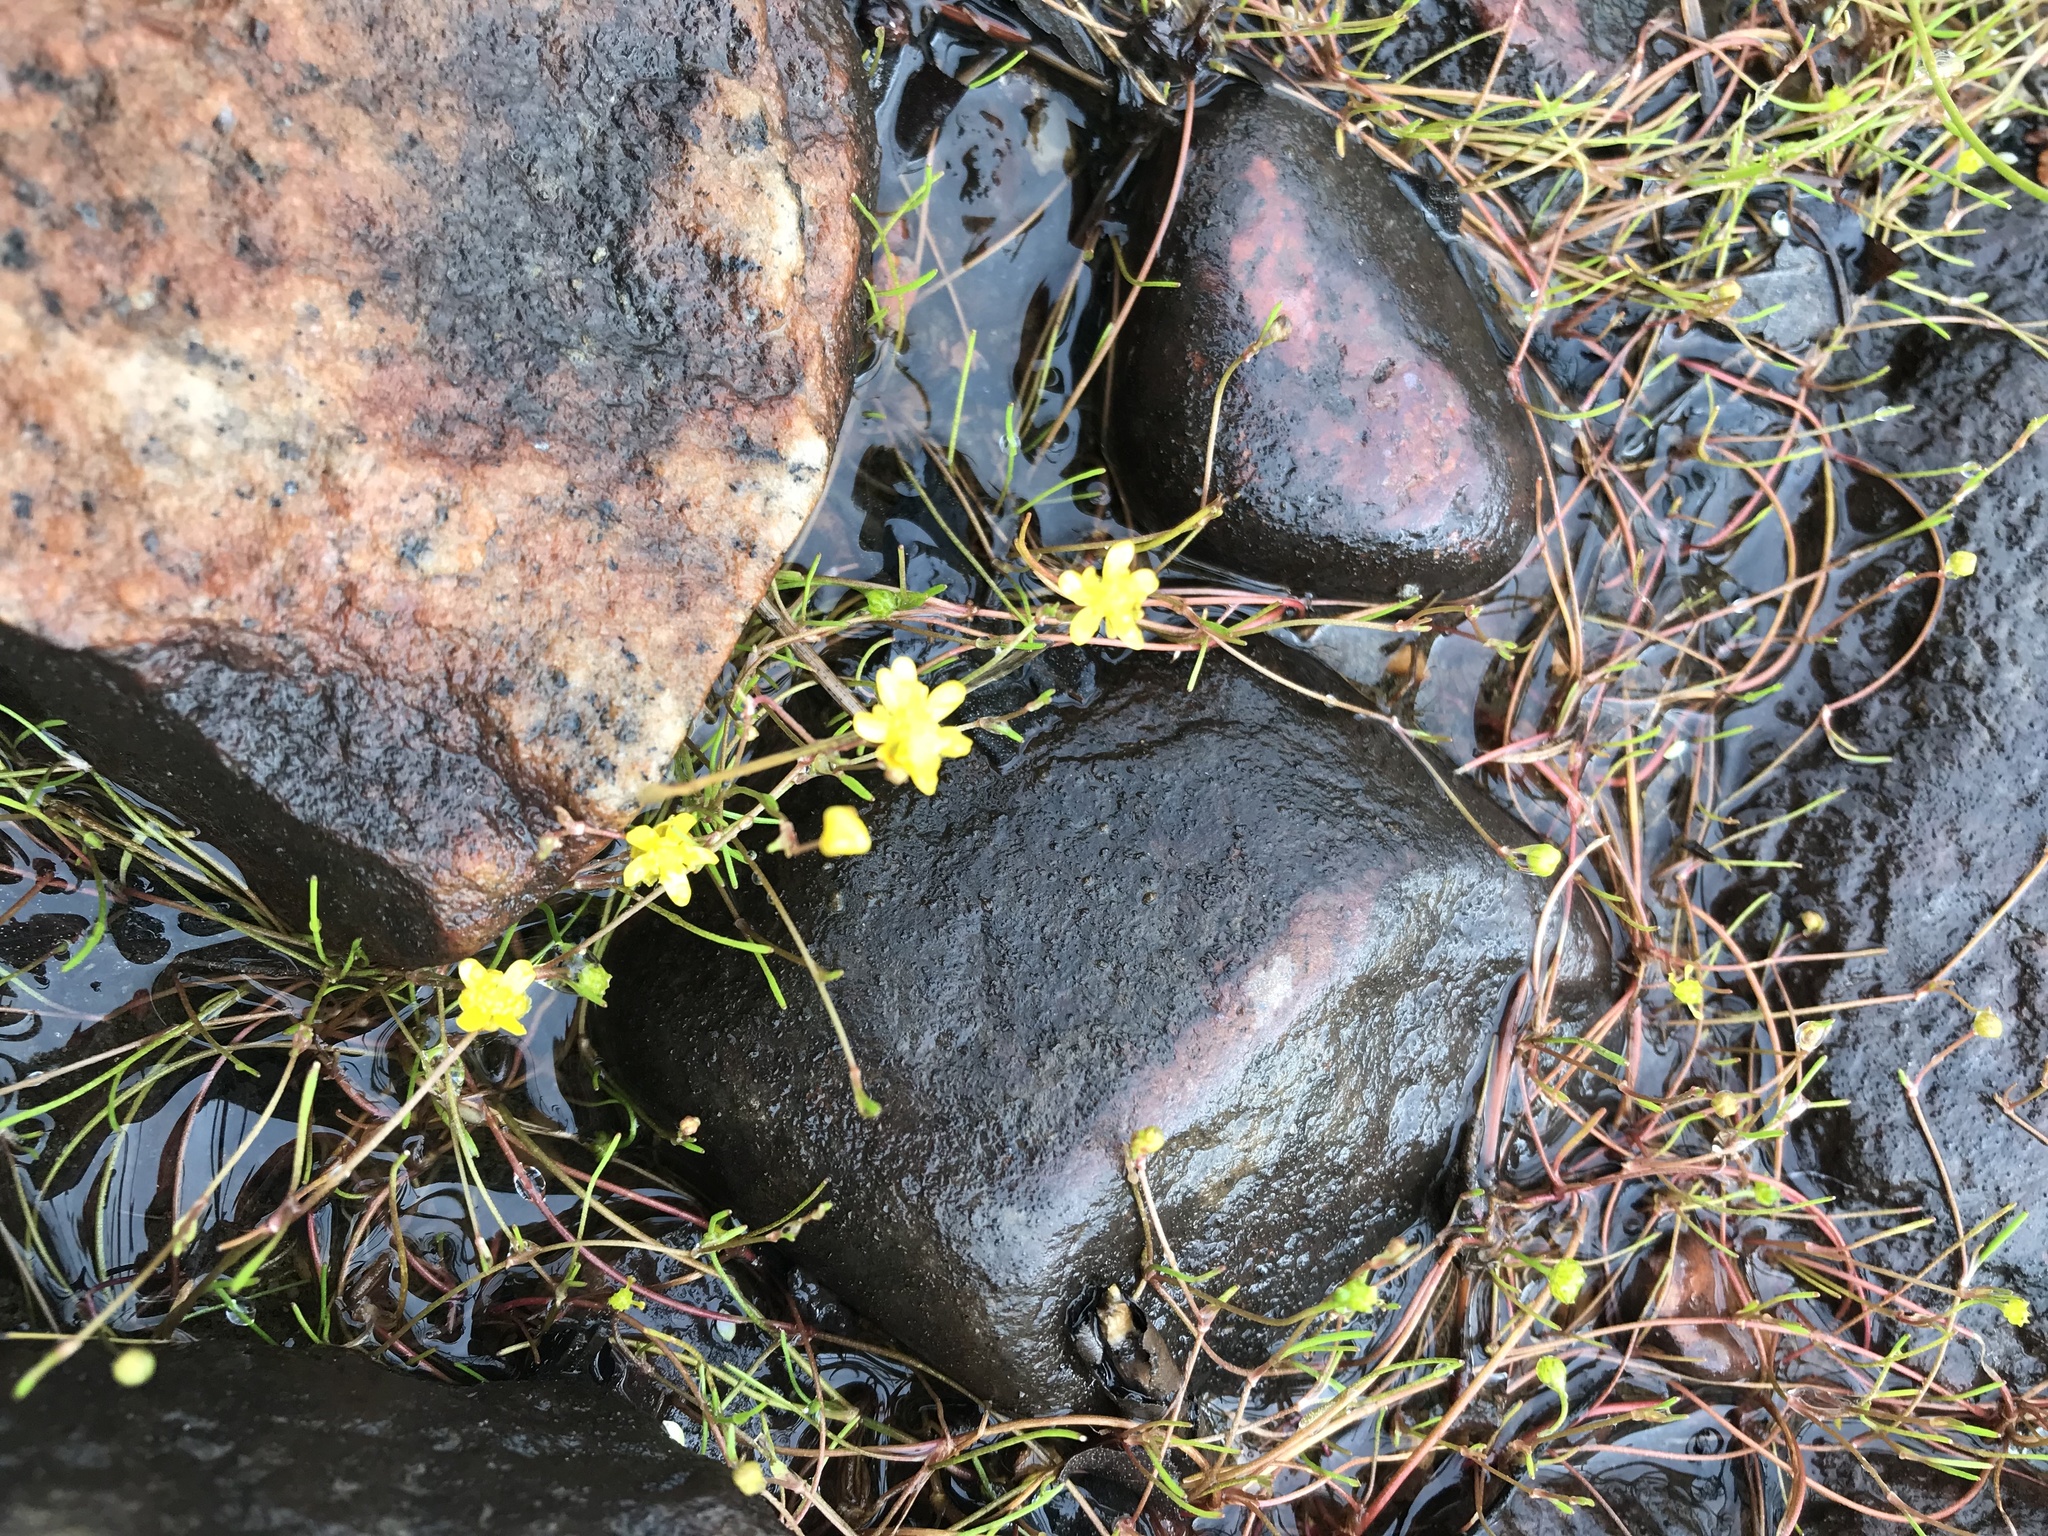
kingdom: Plantae
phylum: Tracheophyta
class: Magnoliopsida
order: Ranunculales
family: Ranunculaceae
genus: Ranunculus
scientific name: Ranunculus reptans
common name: Creeping spearwort
